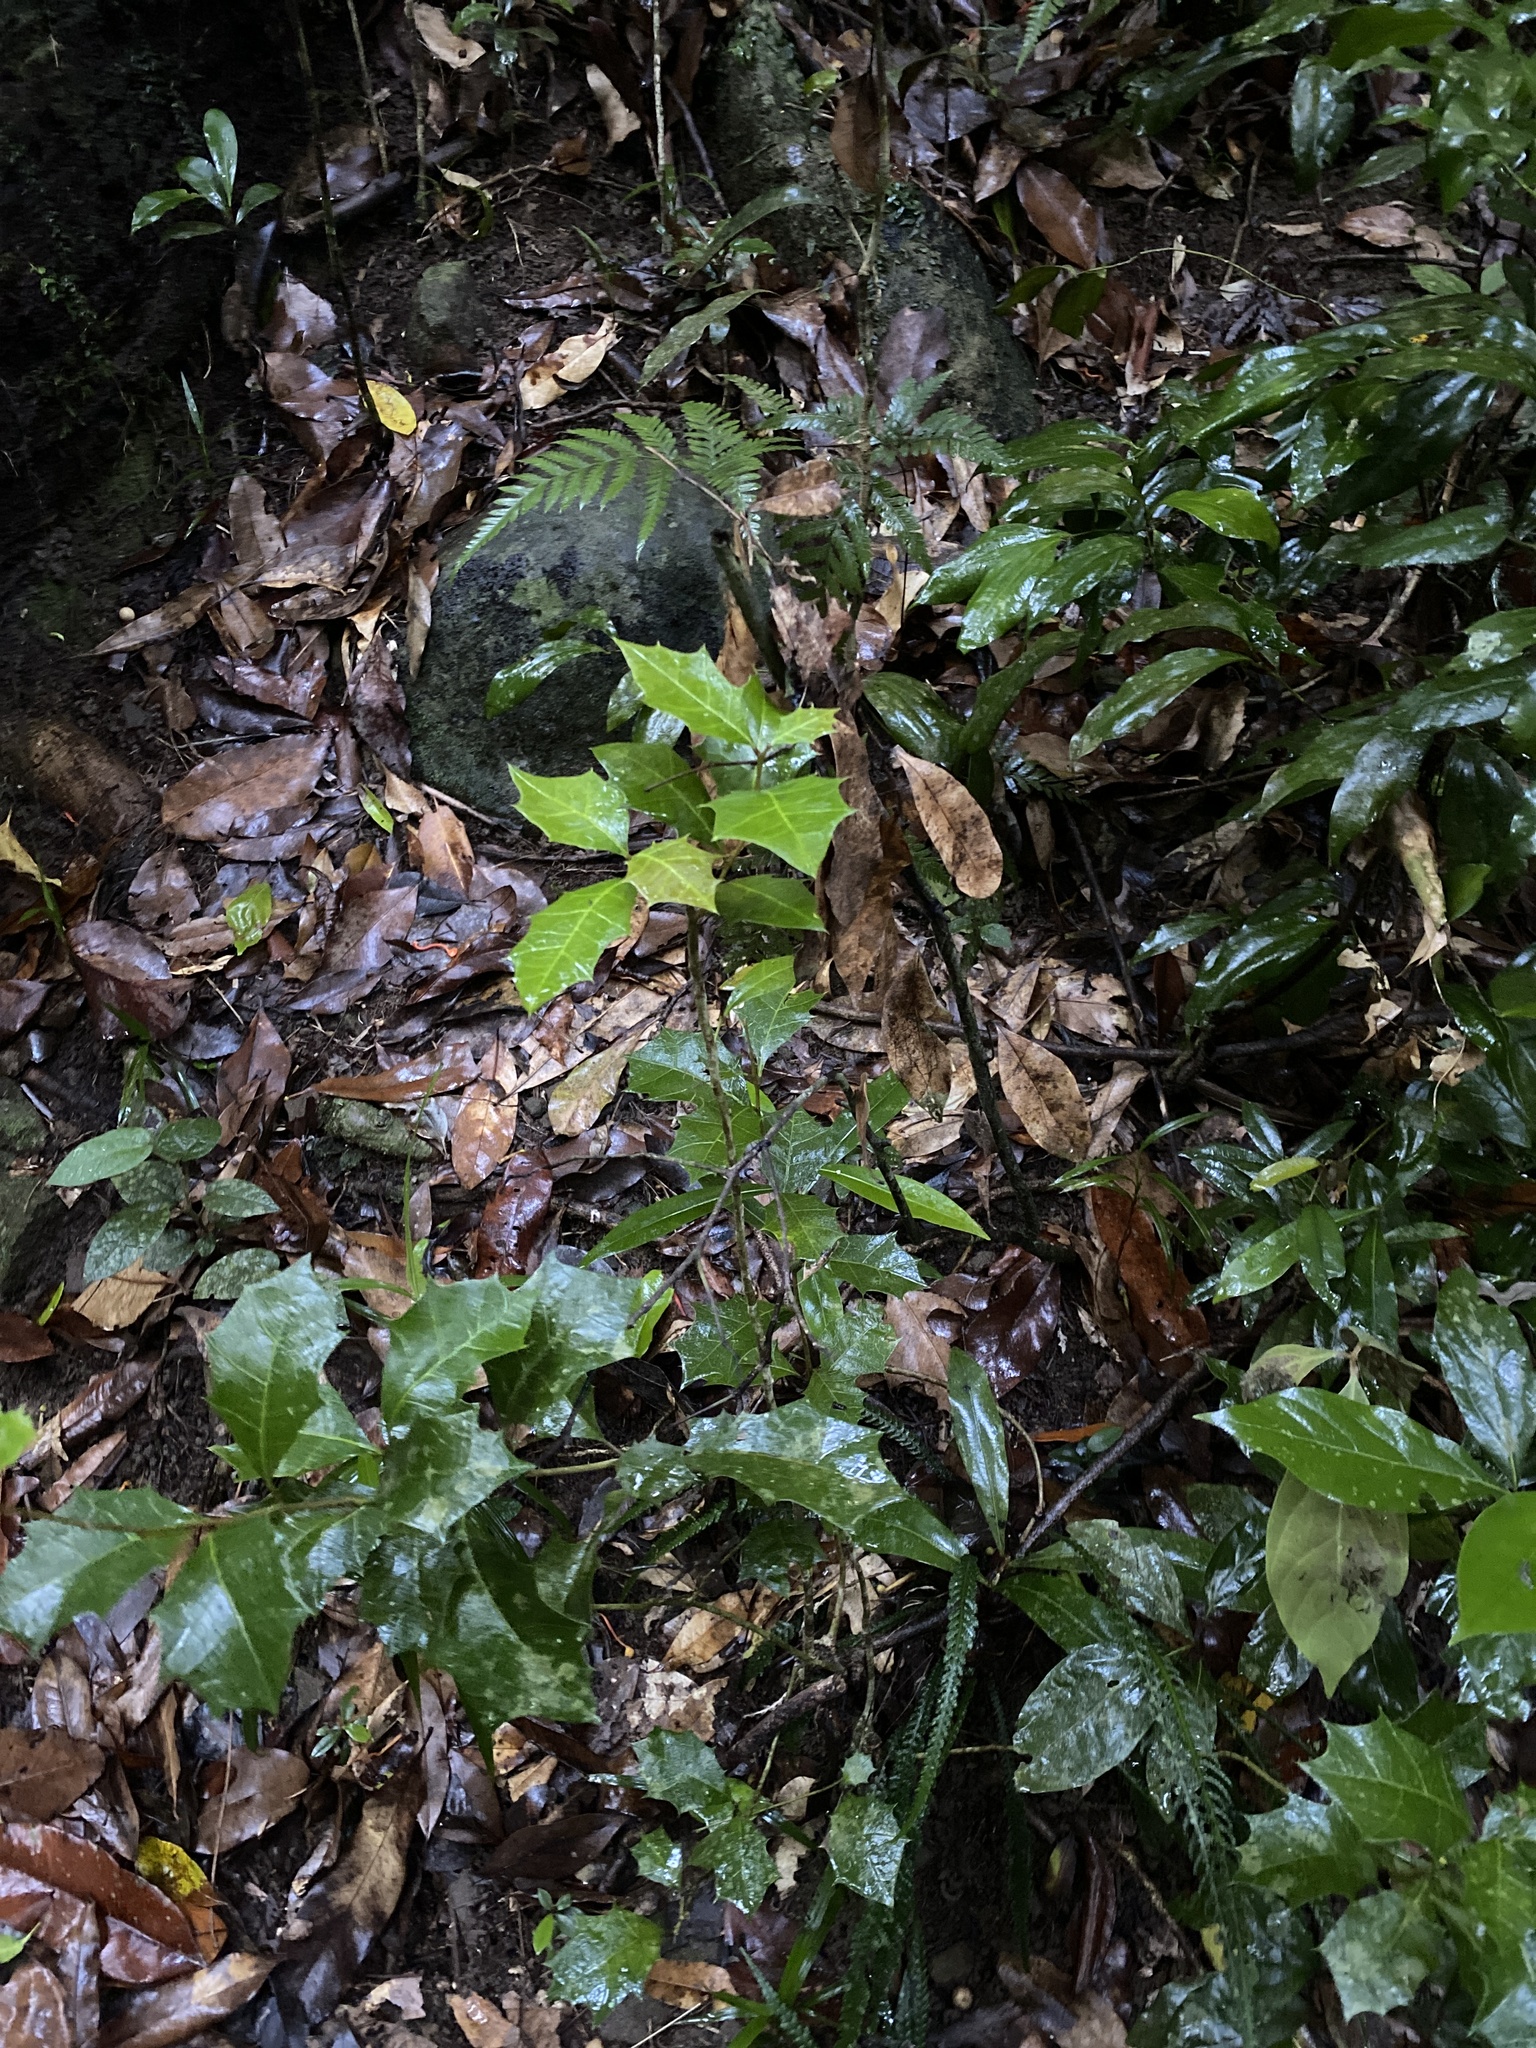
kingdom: Plantae
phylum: Tracheophyta
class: Magnoliopsida
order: Malpighiales
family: Euphorbiaceae
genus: Alchornea
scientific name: Alchornea ilicifolia
